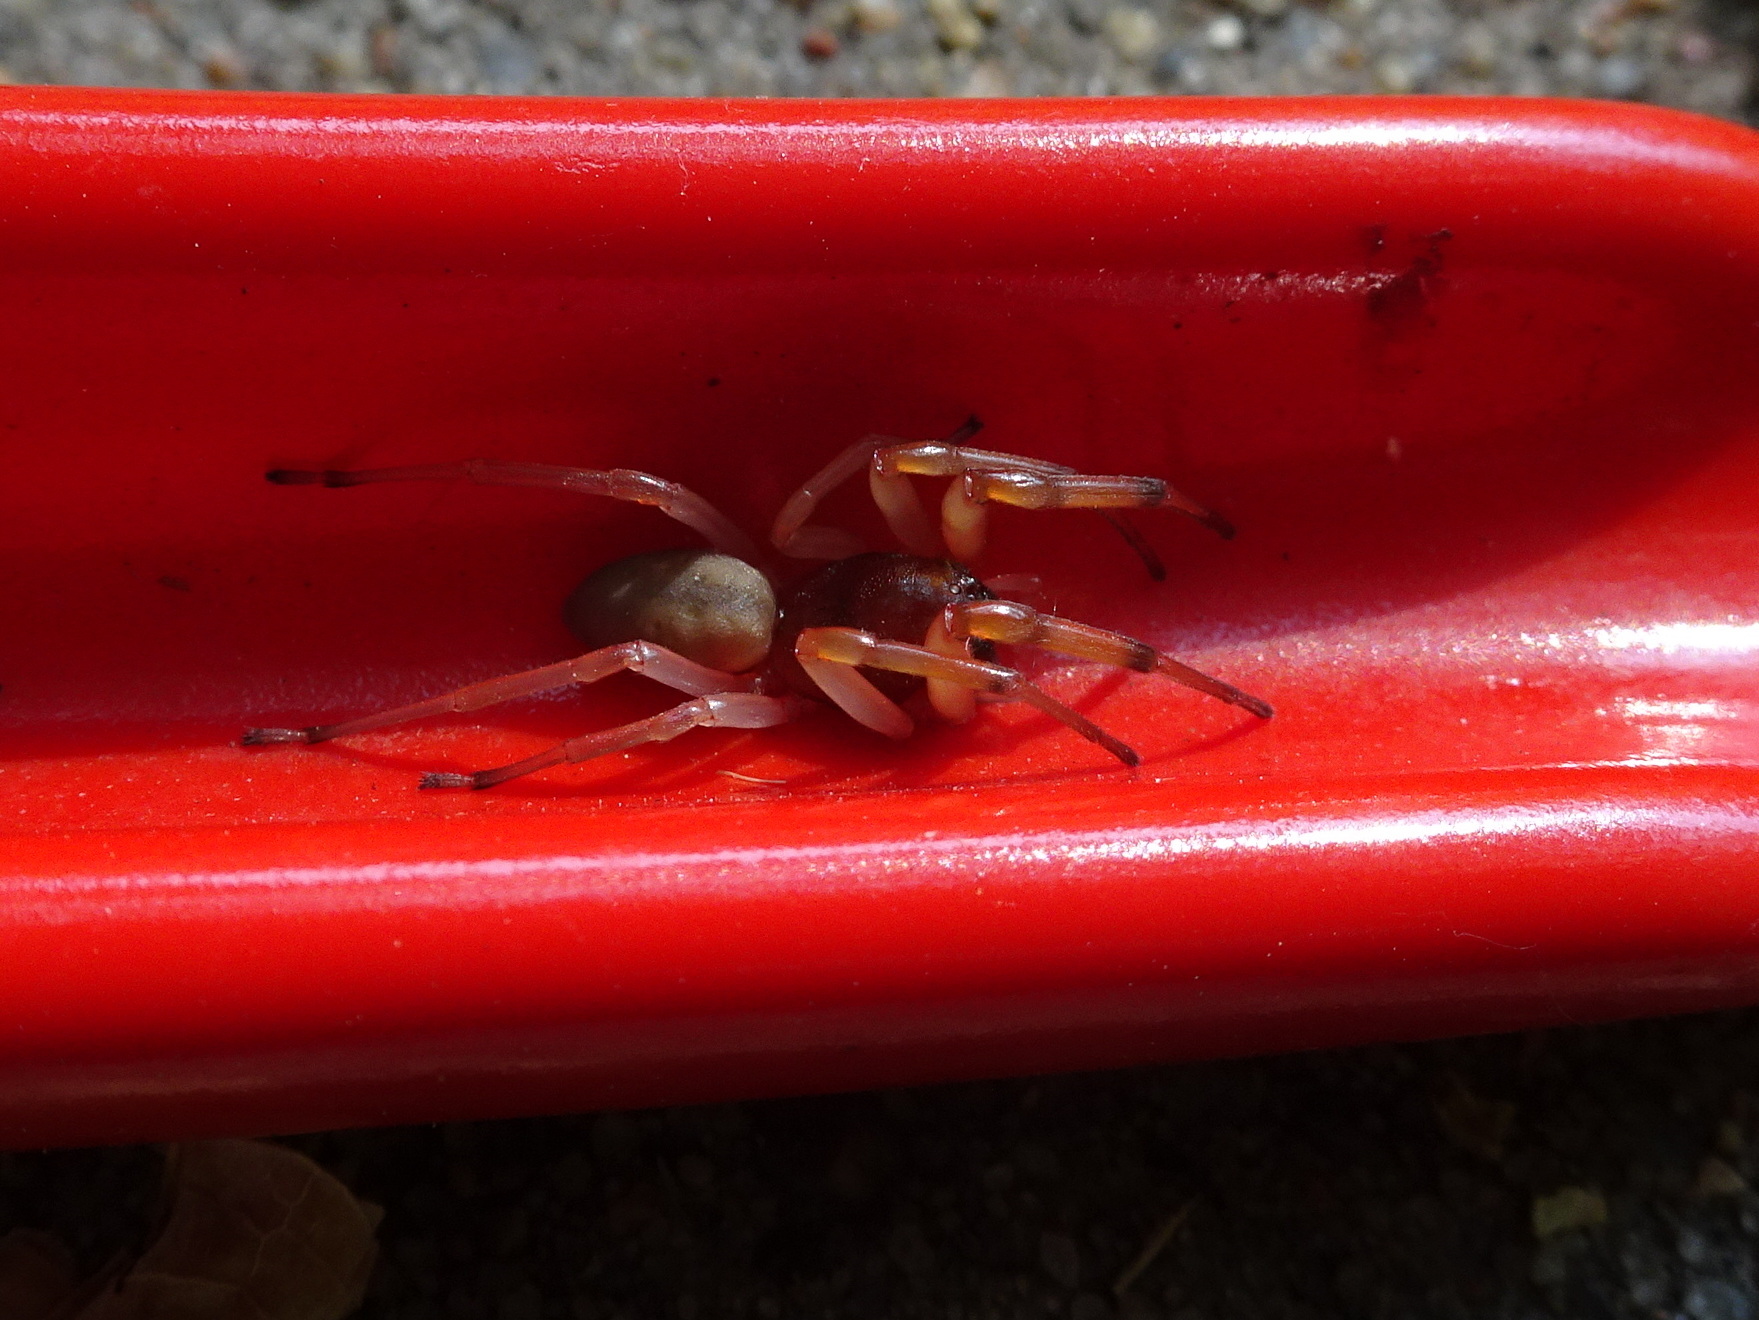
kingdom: Animalia
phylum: Arthropoda
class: Arachnida
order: Araneae
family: Trachelidae
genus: Trachelas
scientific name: Trachelas tranquillus
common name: Broad-faced sac spider
